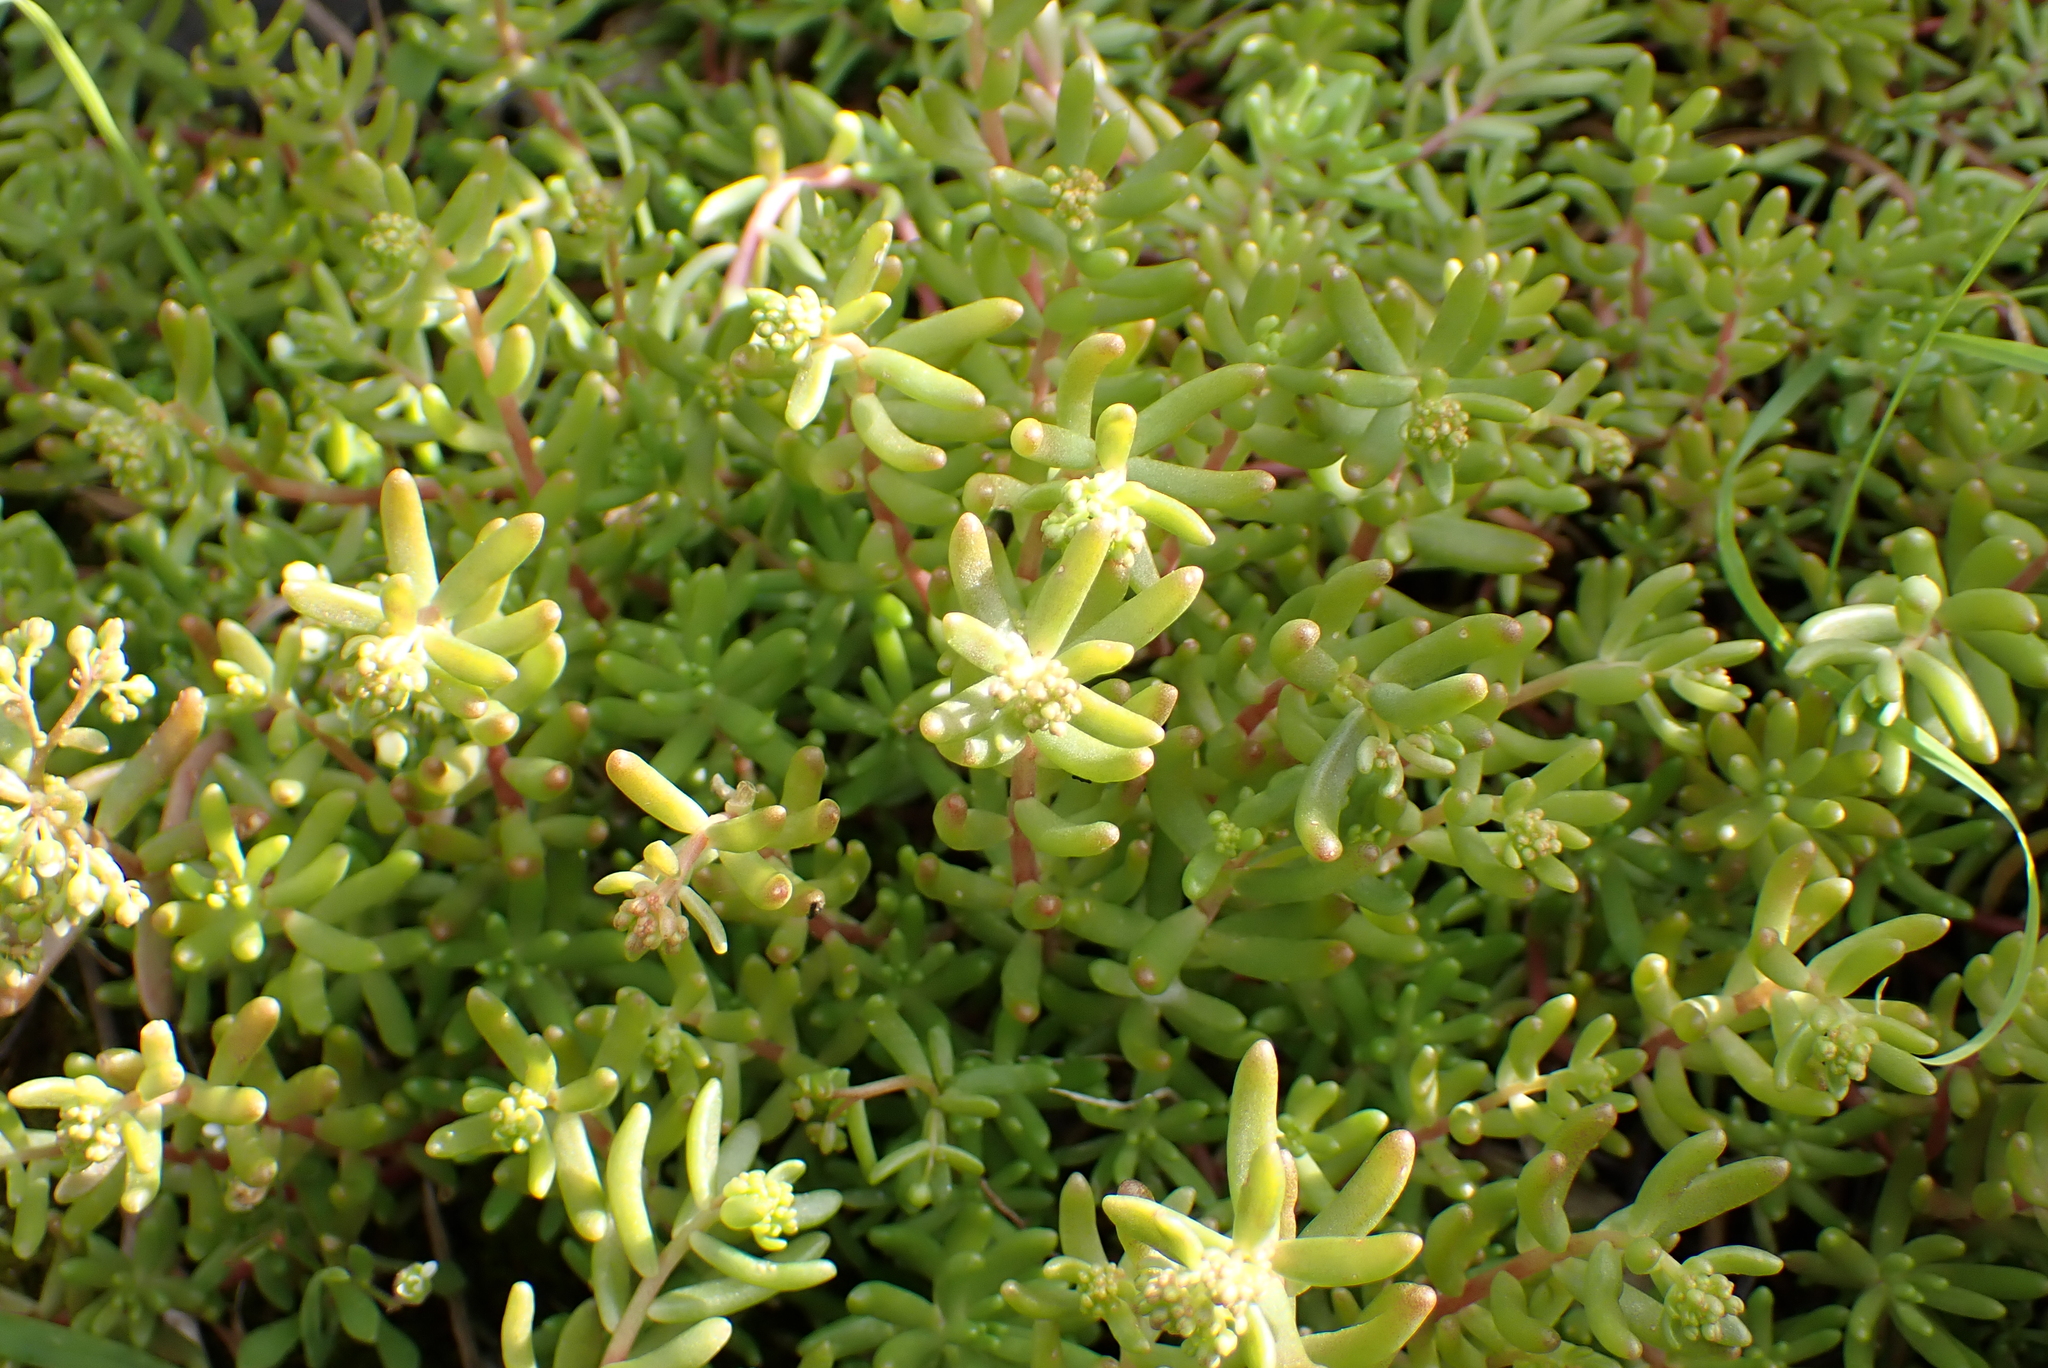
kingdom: Plantae
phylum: Tracheophyta
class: Magnoliopsida
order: Saxifragales
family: Crassulaceae
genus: Sedum
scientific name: Sedum album
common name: White stonecrop
